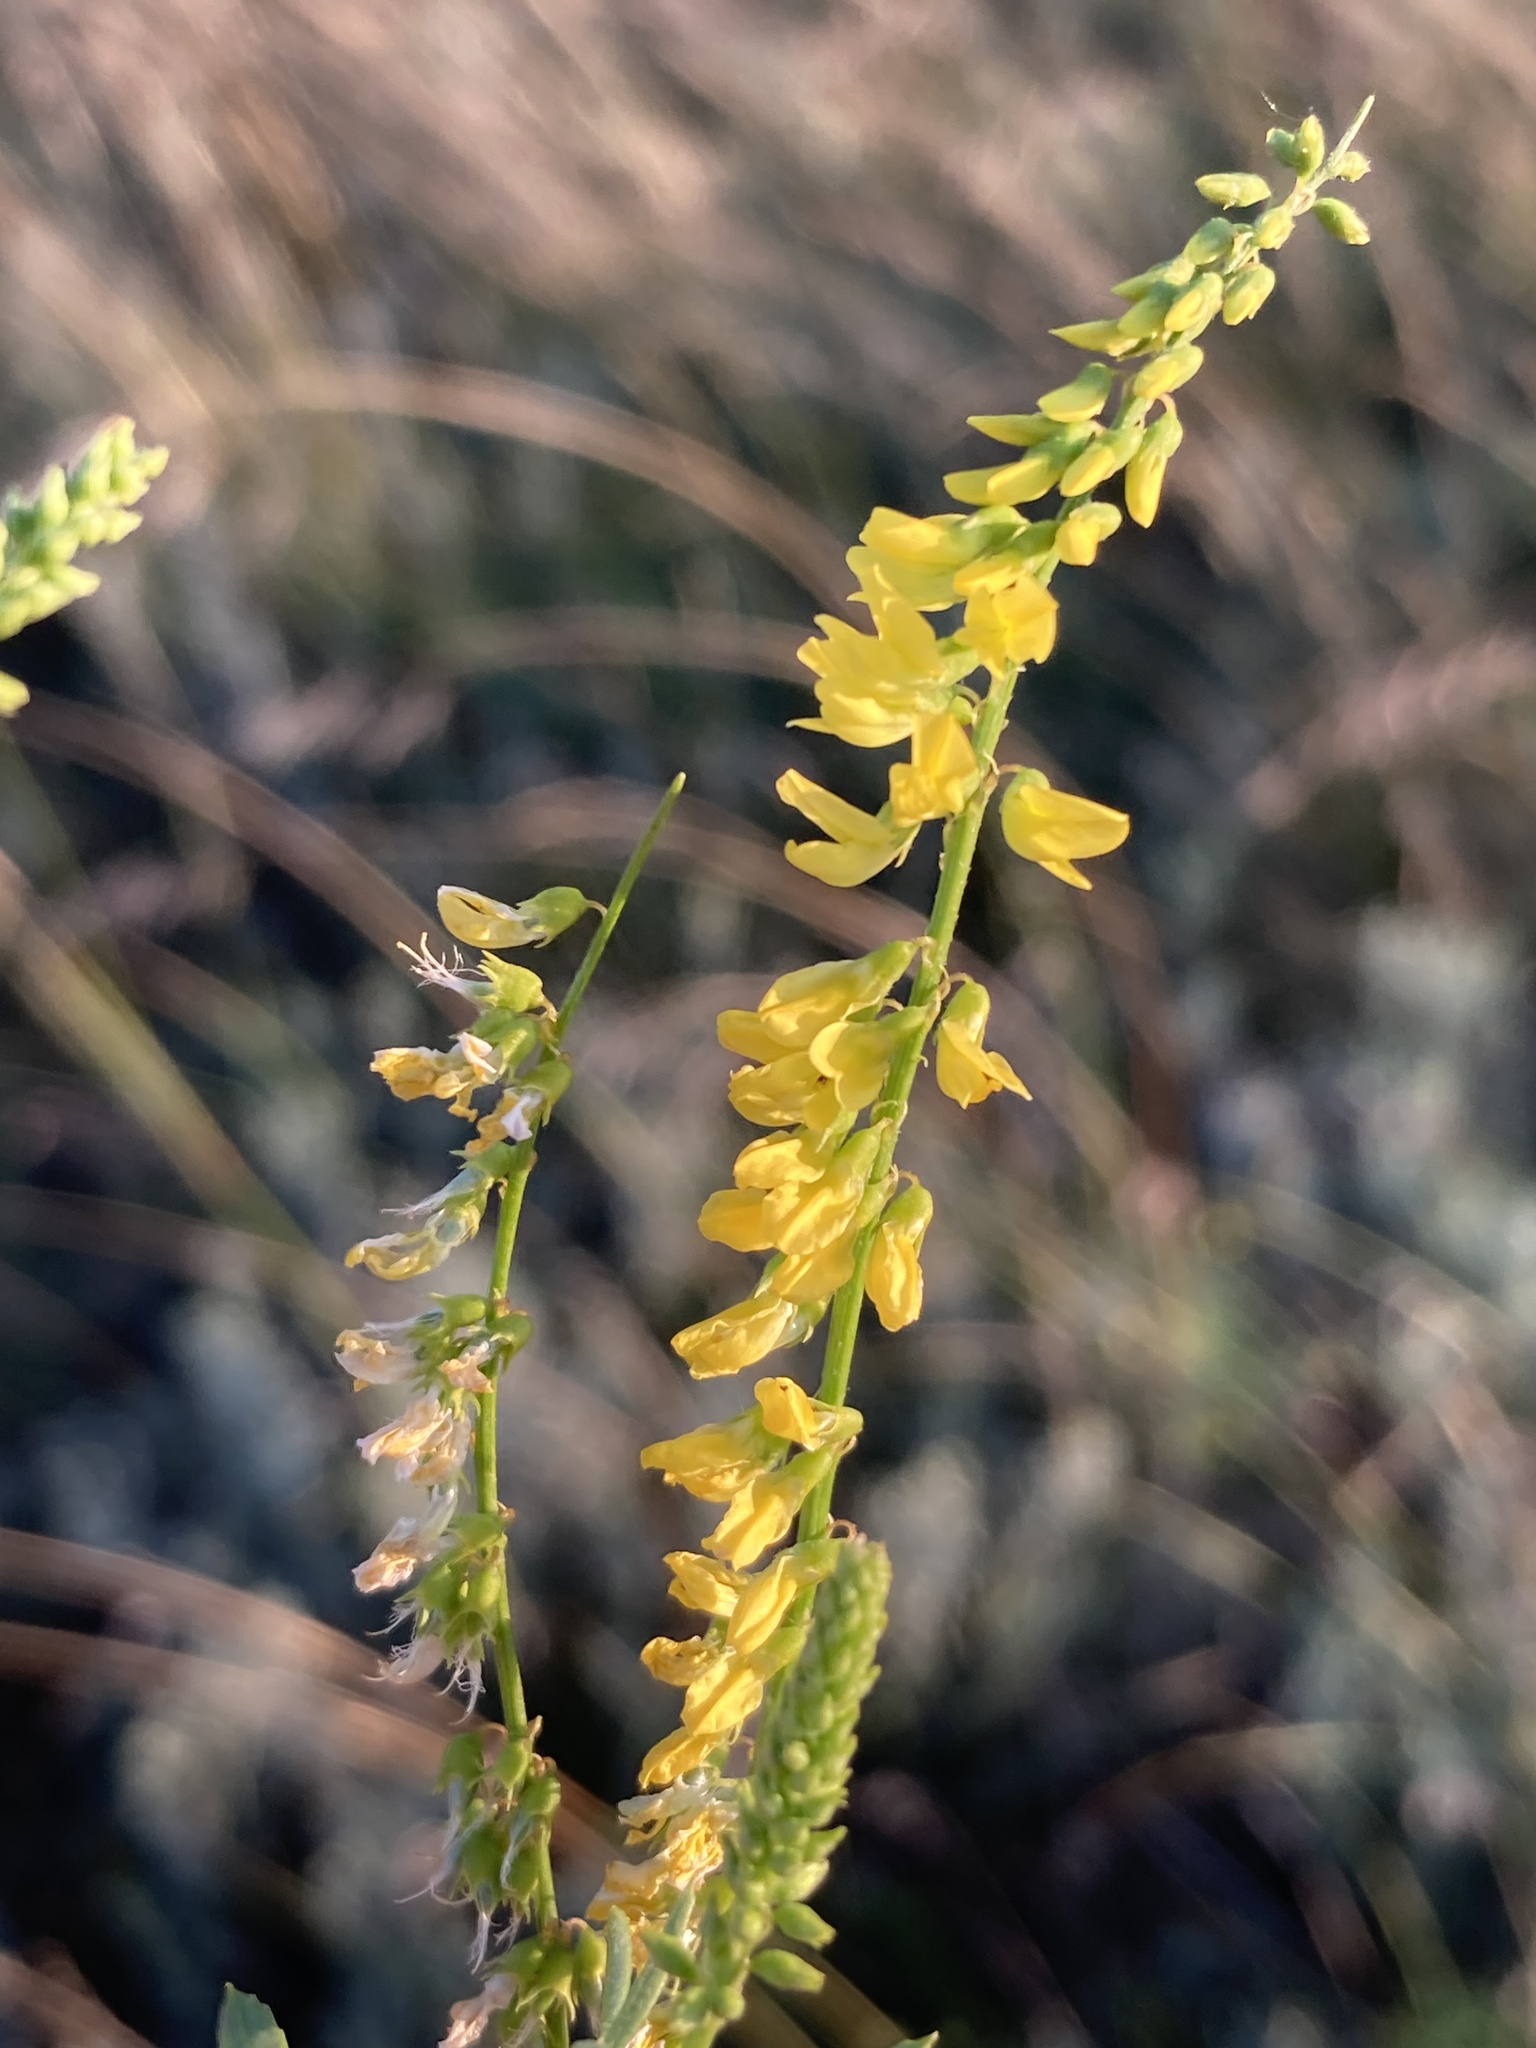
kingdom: Plantae
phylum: Tracheophyta
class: Magnoliopsida
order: Fabales
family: Fabaceae
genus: Melilotus
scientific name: Melilotus officinalis
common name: Sweetclover
